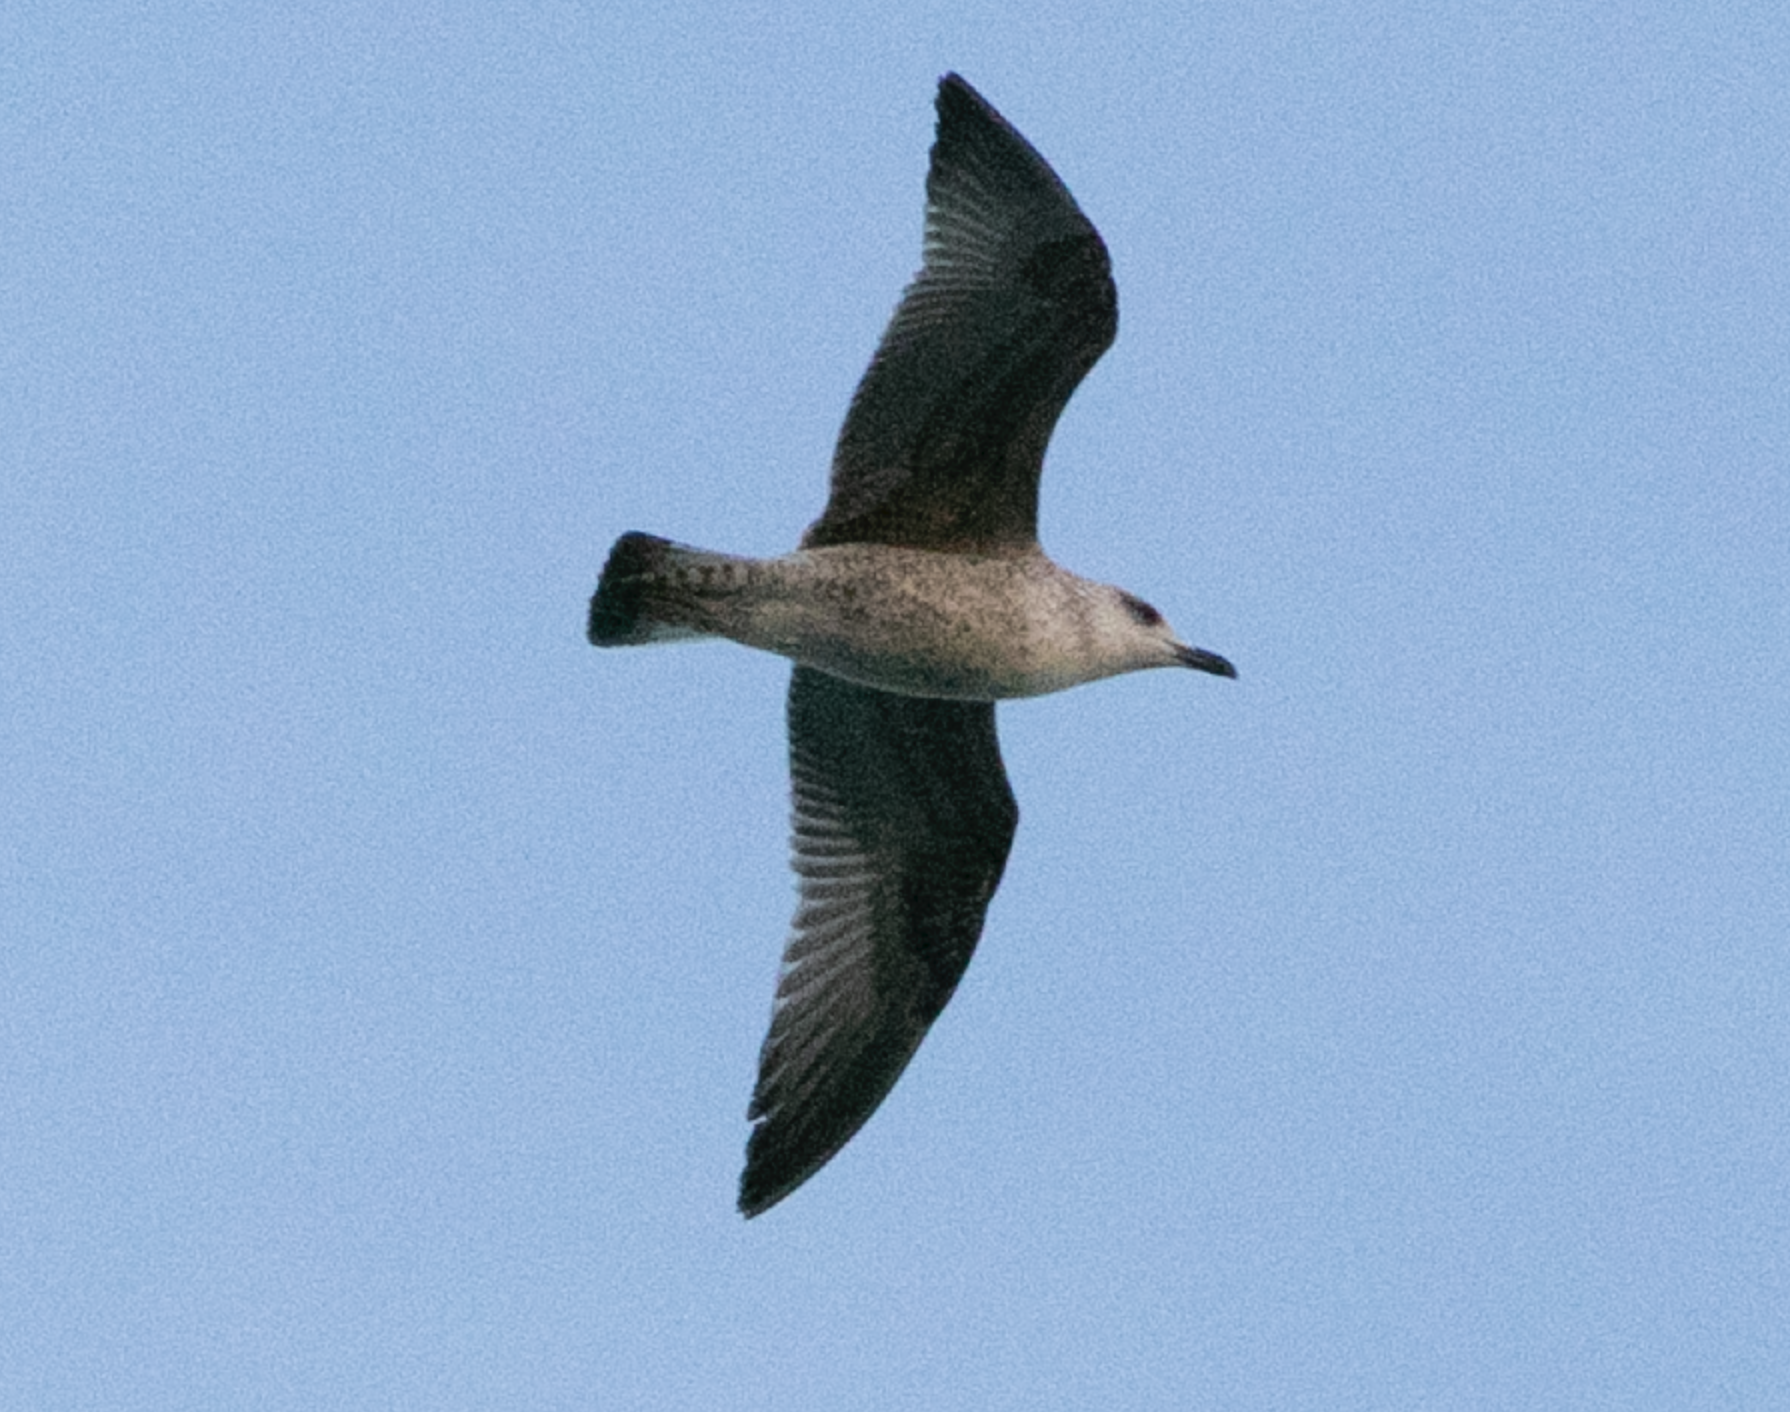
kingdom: Animalia
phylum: Chordata
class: Aves
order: Charadriiformes
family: Laridae
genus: Larus
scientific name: Larus michahellis
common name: Yellow-legged gull
